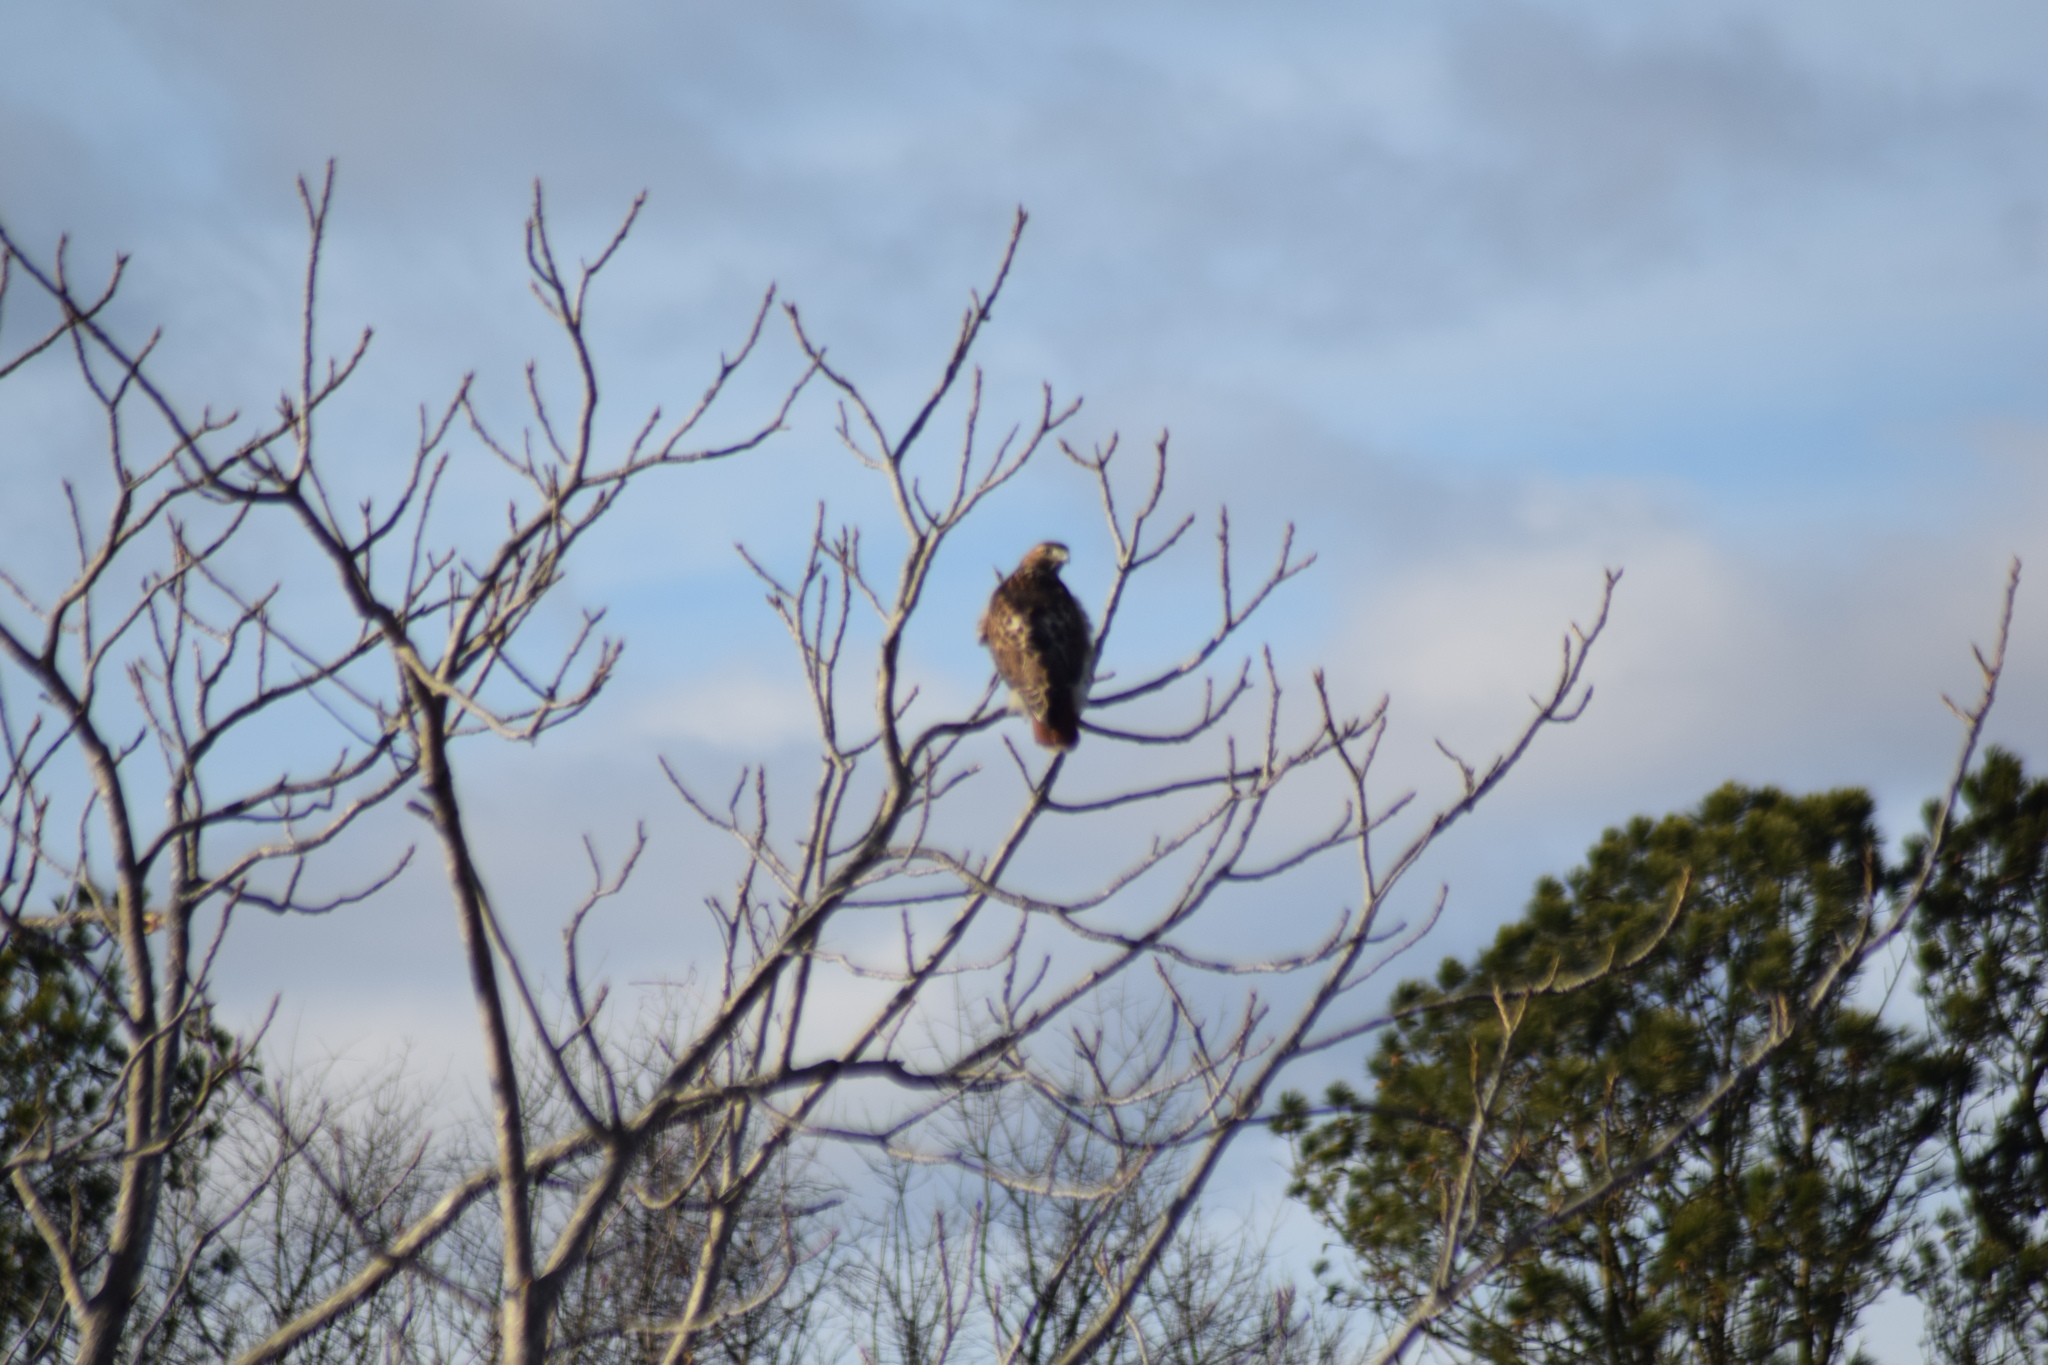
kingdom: Animalia
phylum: Chordata
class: Aves
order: Accipitriformes
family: Accipitridae
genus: Buteo
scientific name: Buteo jamaicensis
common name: Red-tailed hawk
